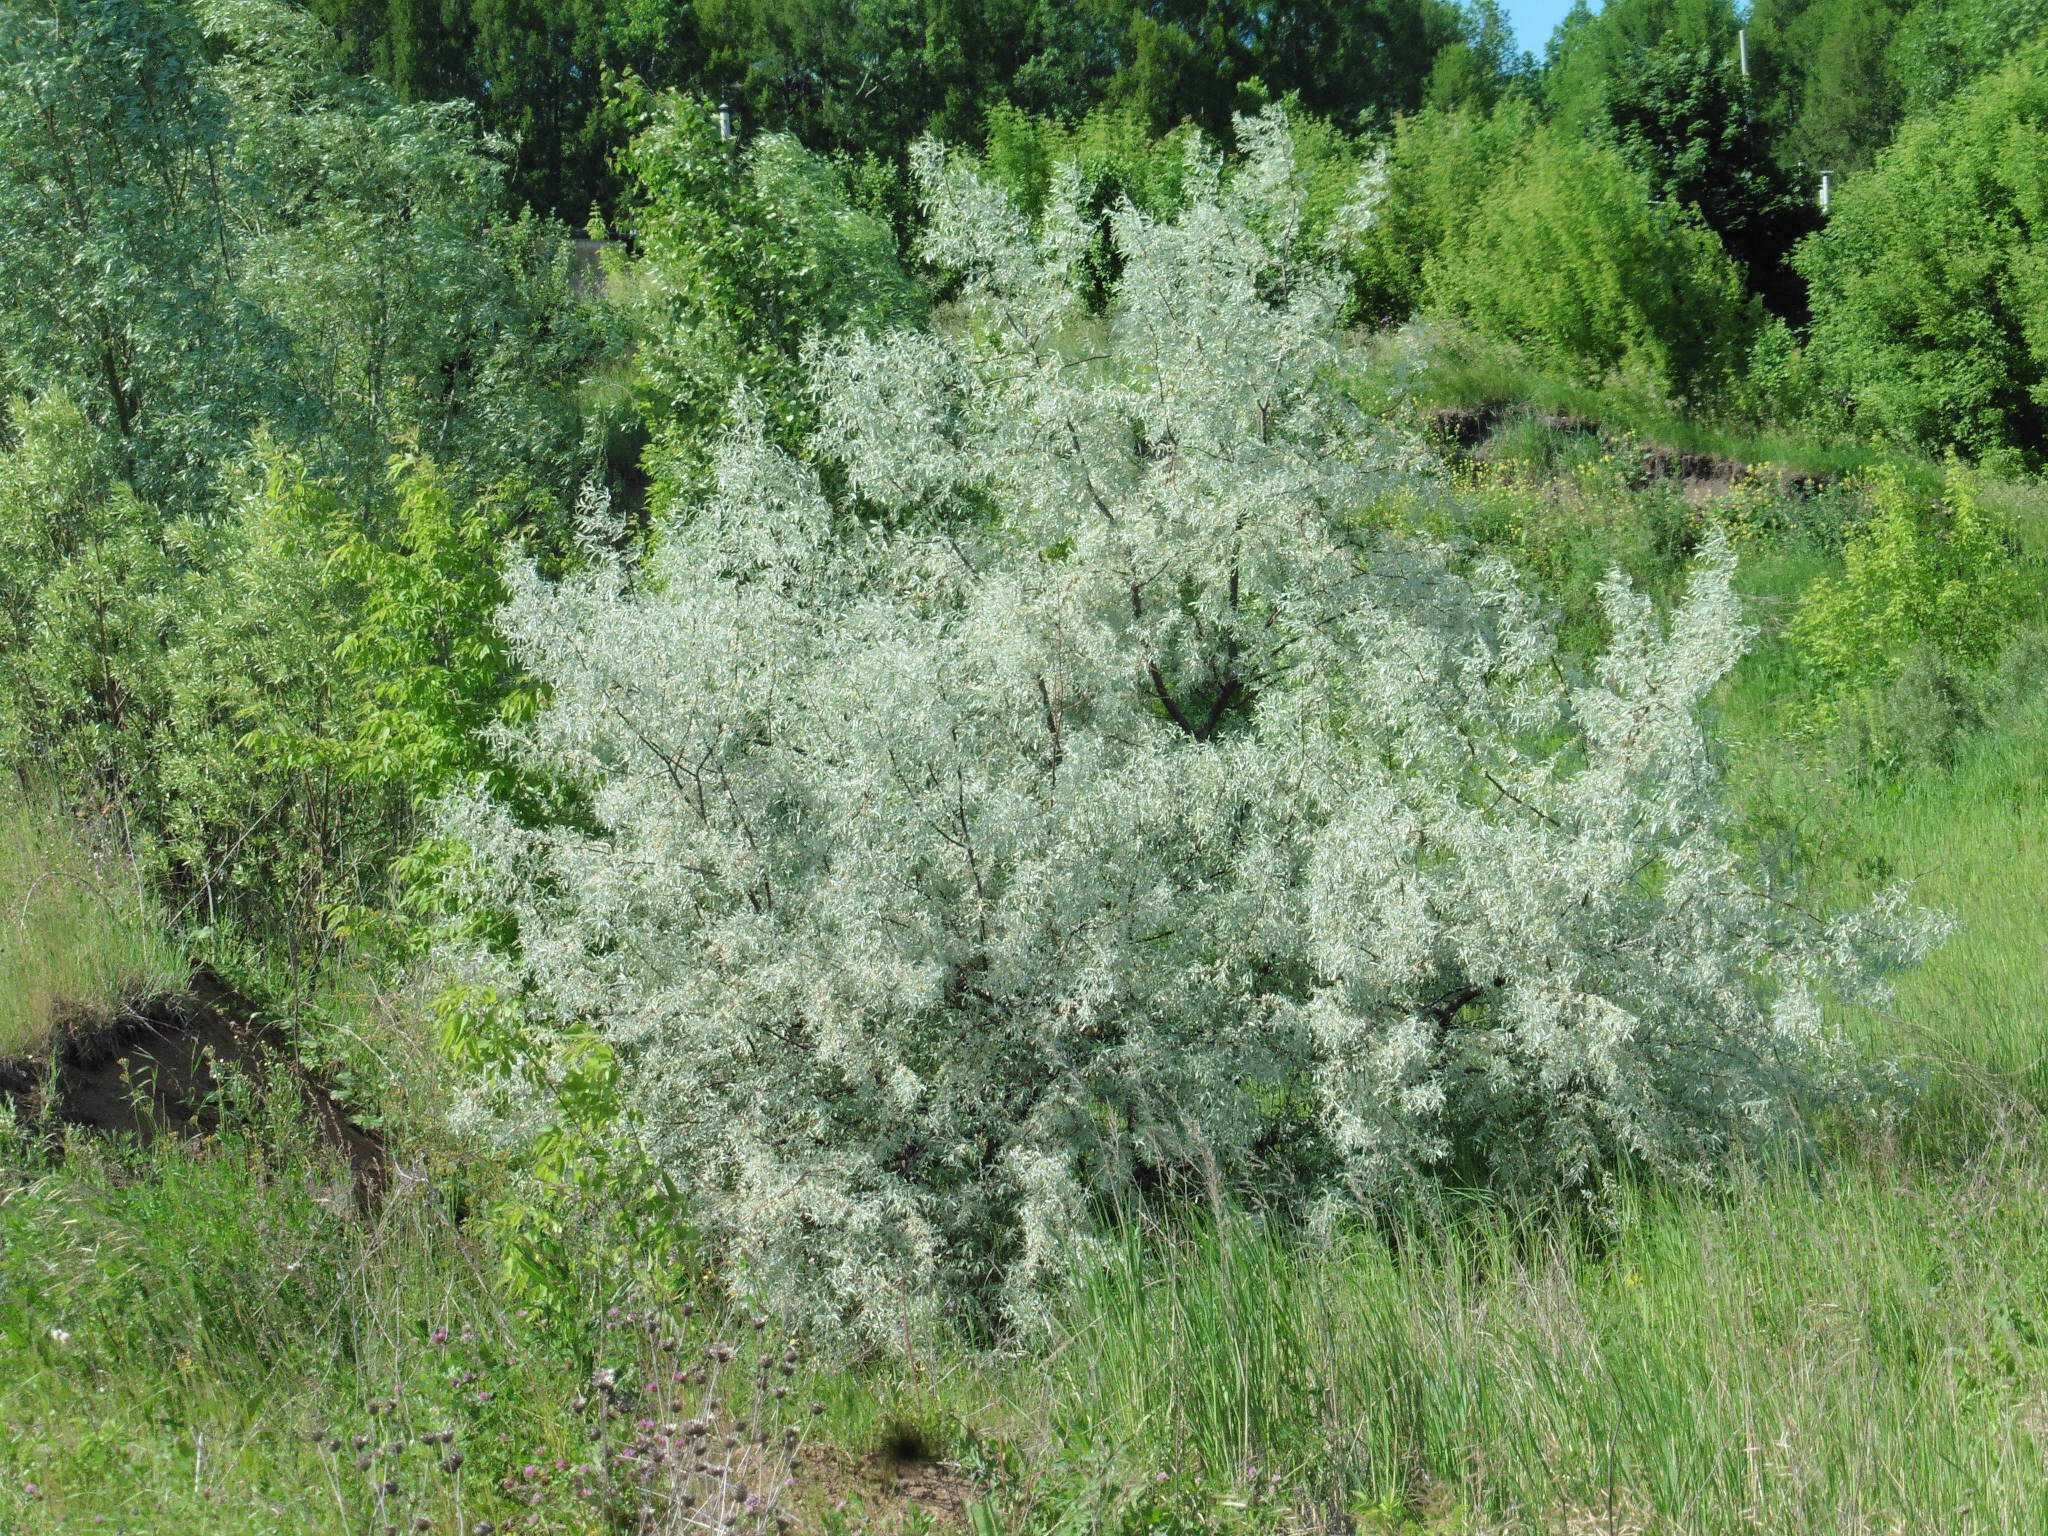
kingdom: Plantae
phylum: Tracheophyta
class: Magnoliopsida
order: Rosales
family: Elaeagnaceae
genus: Elaeagnus
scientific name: Elaeagnus angustifolia
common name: Russian olive
